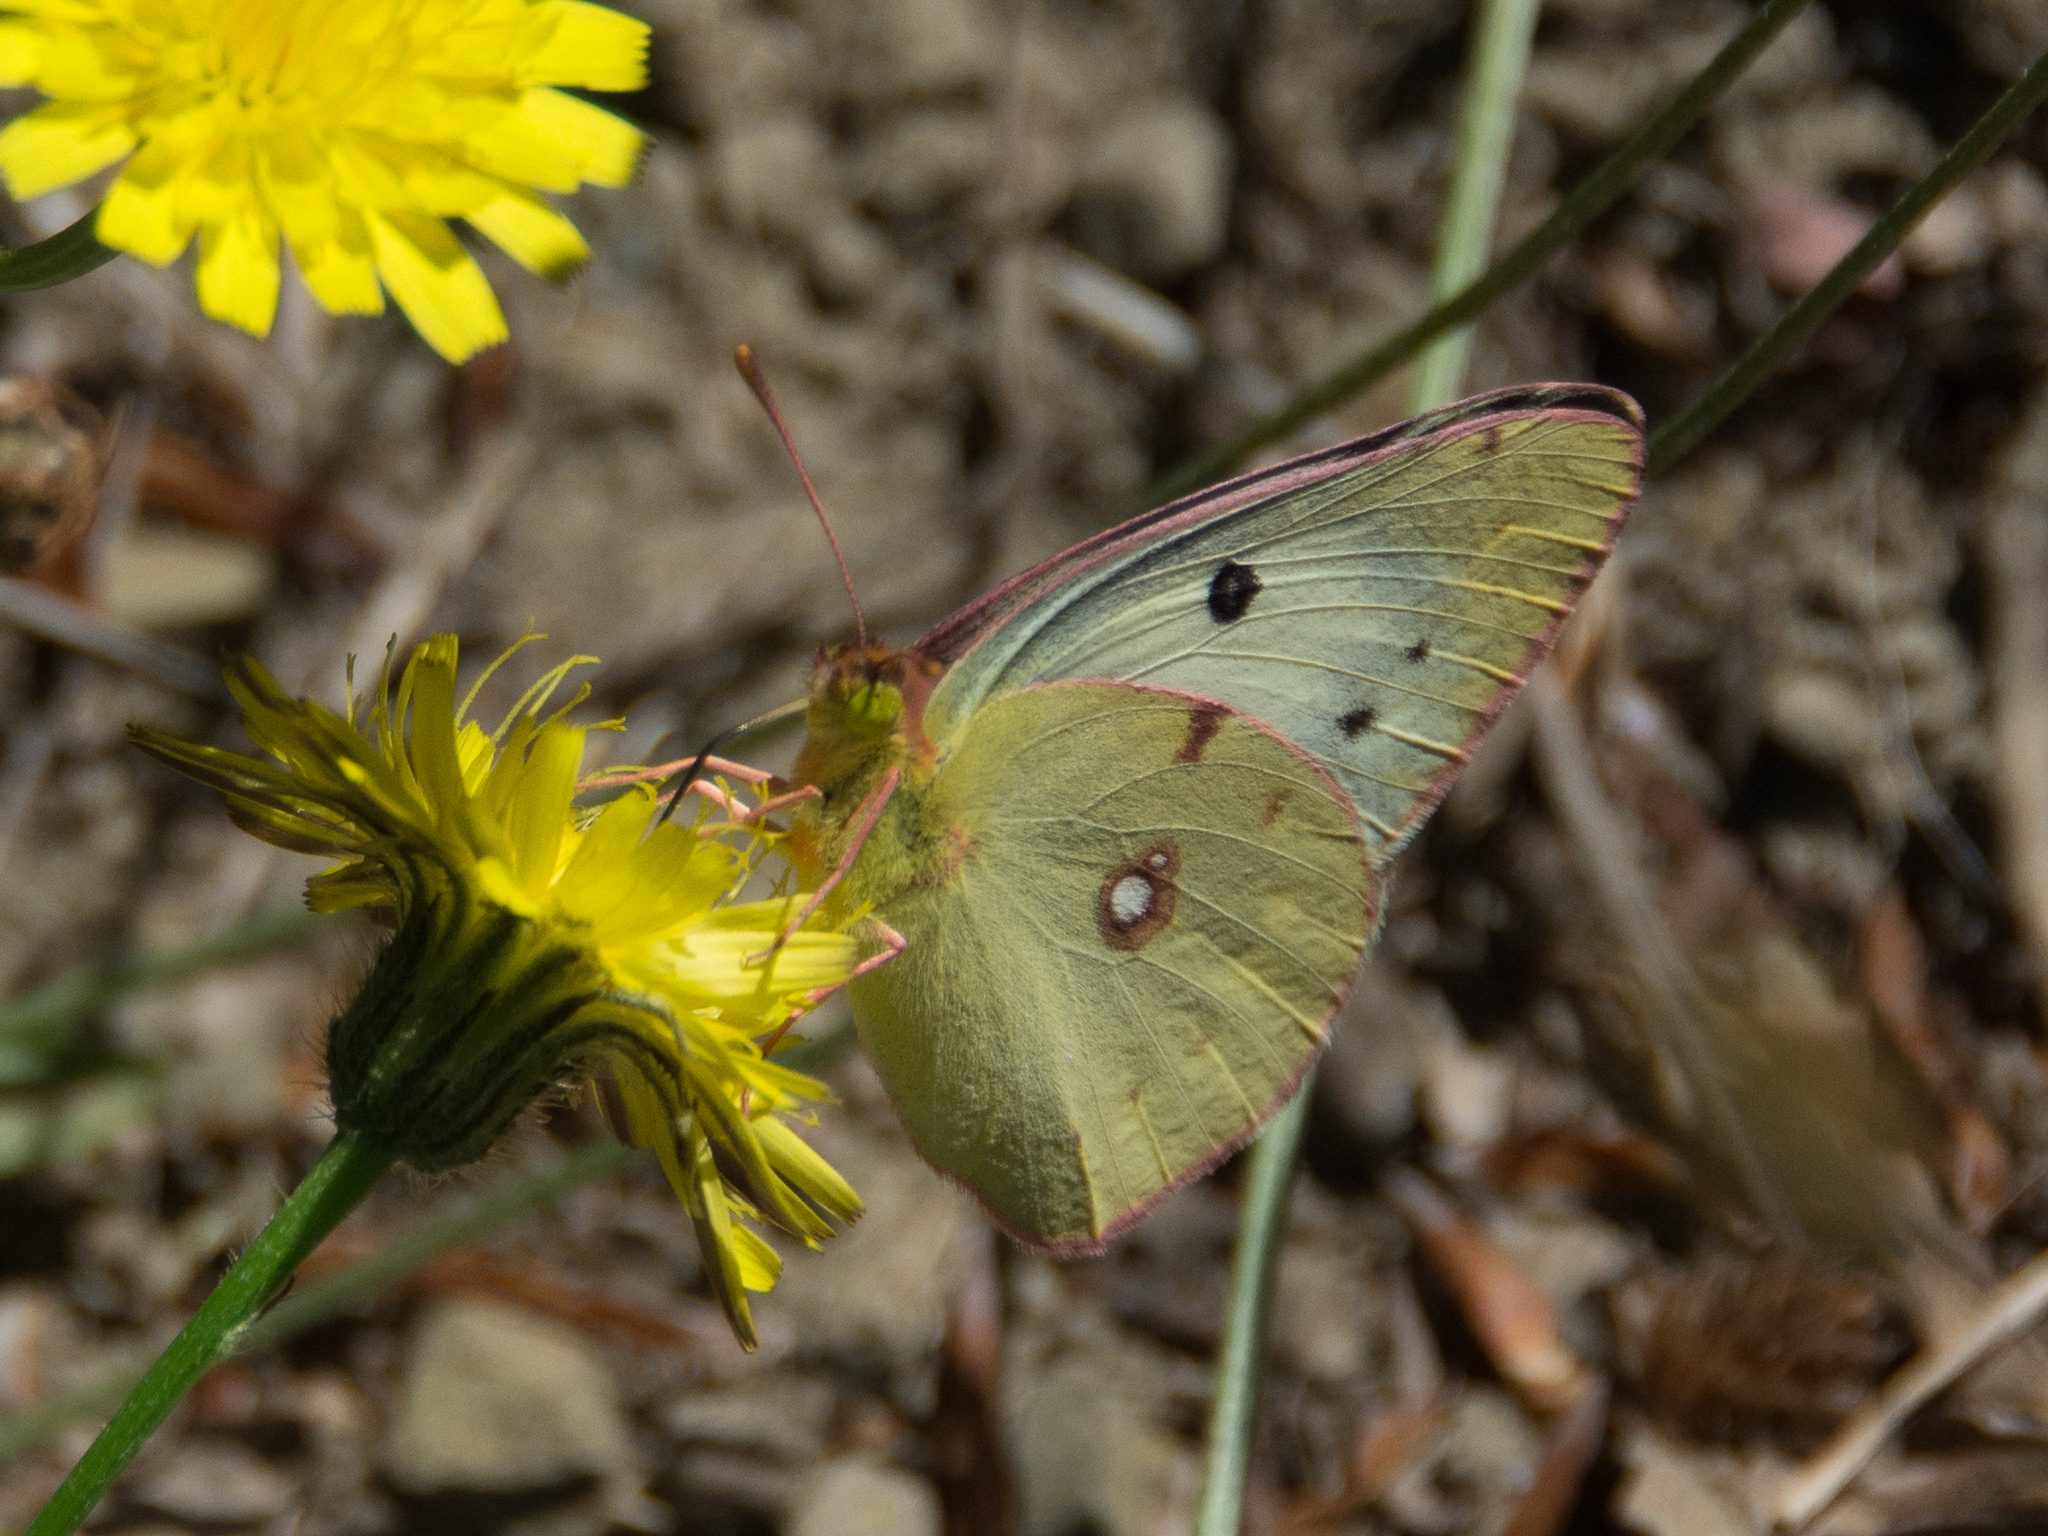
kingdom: Animalia
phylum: Arthropoda
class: Insecta
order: Lepidoptera
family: Pieridae
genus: Colias
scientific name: Colias croceus
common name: Clouded yellow
